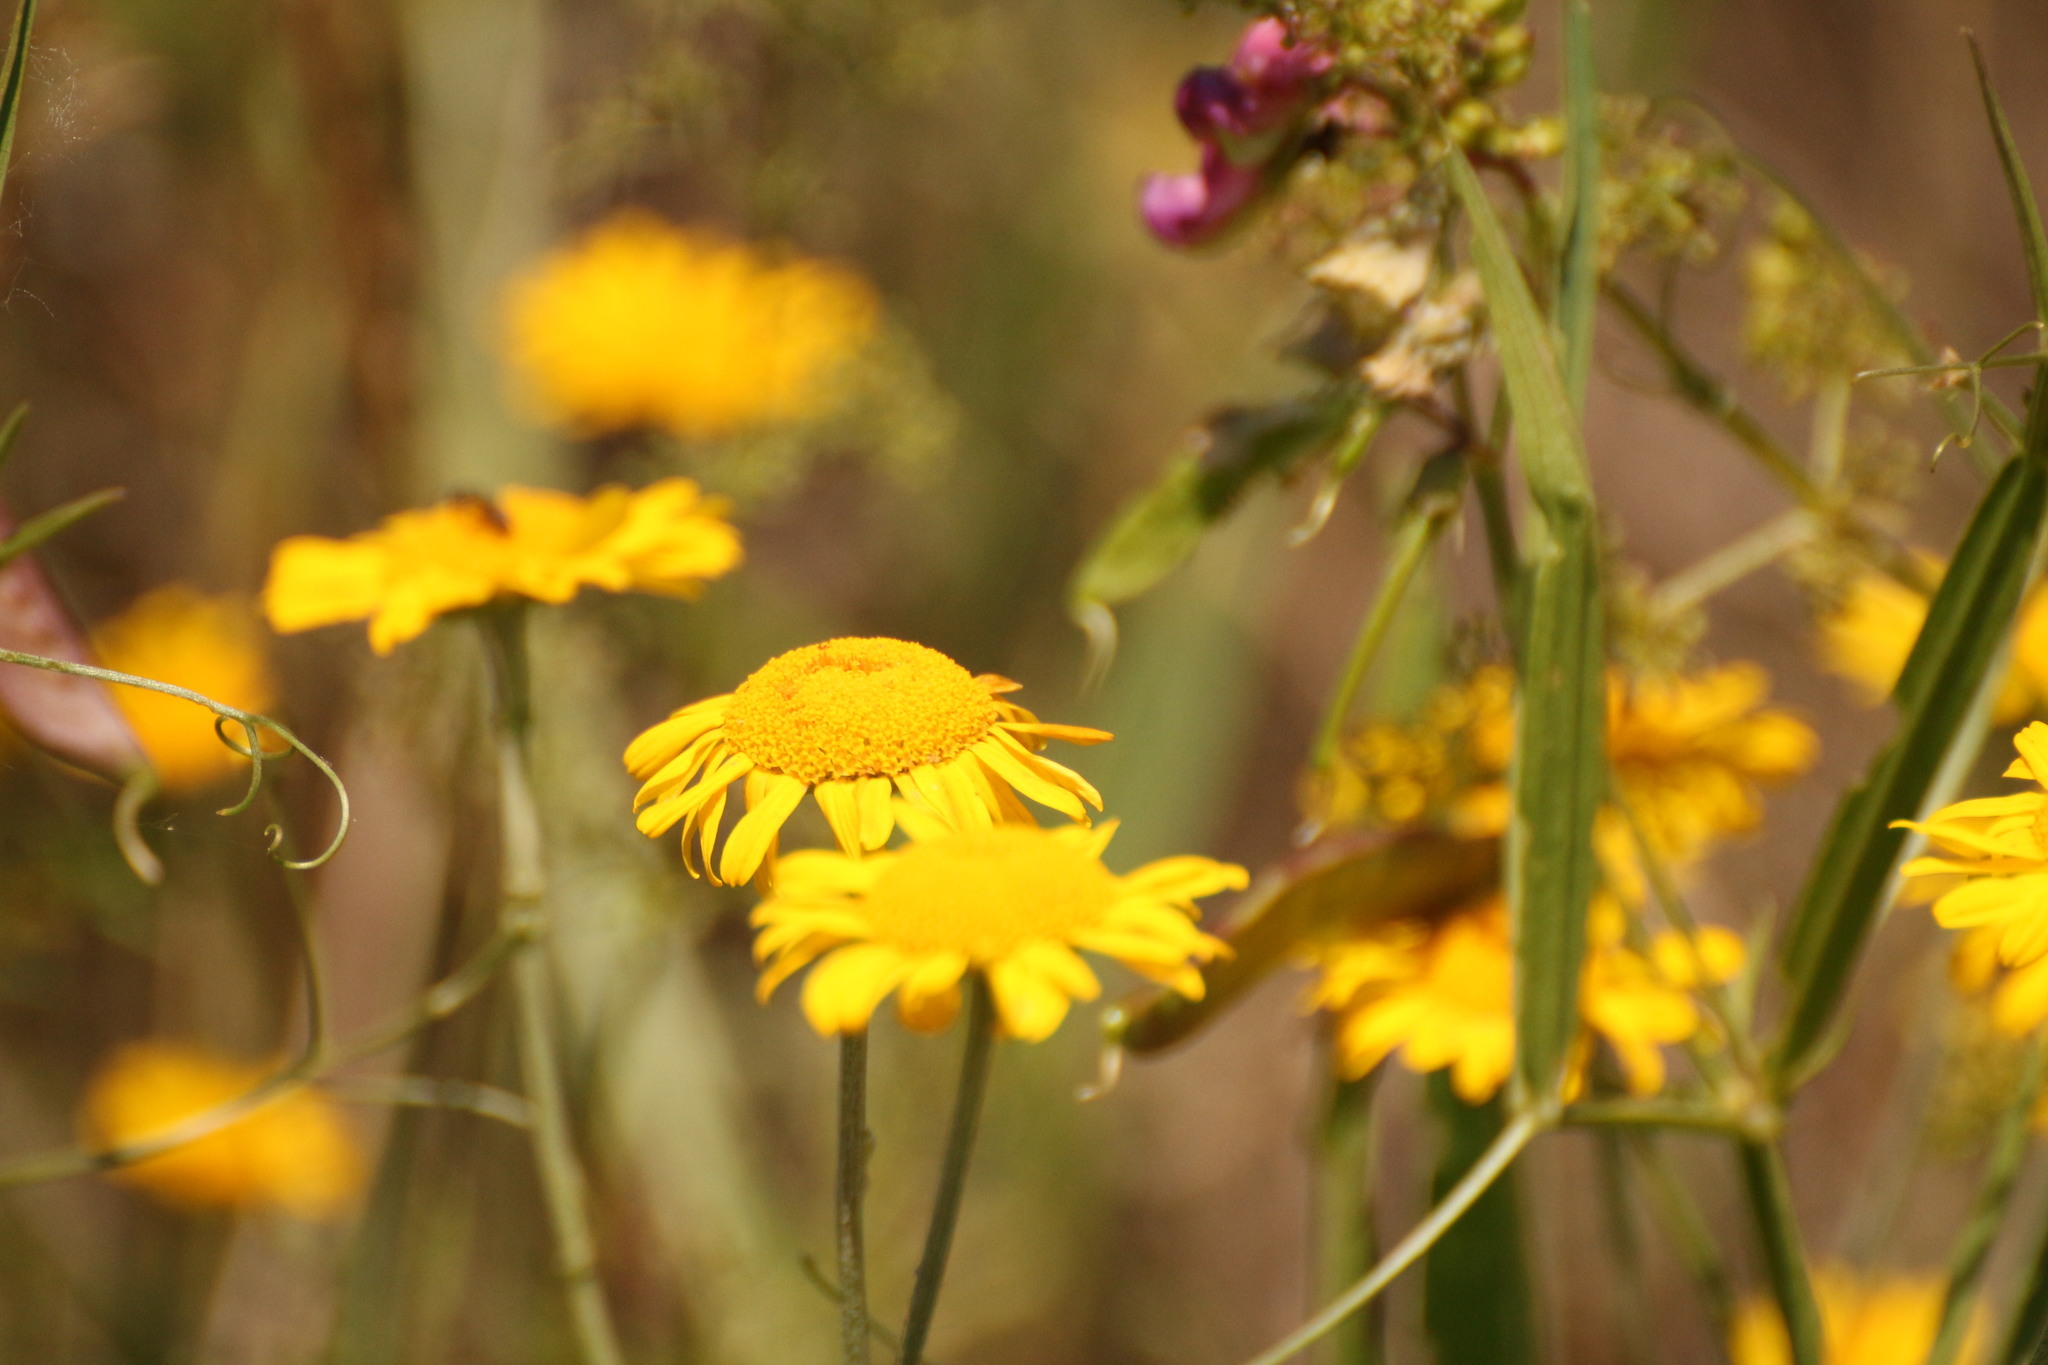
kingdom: Plantae
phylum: Tracheophyta
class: Magnoliopsida
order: Asterales
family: Asteraceae
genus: Cota
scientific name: Cota tinctoria
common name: Golden chamomile
